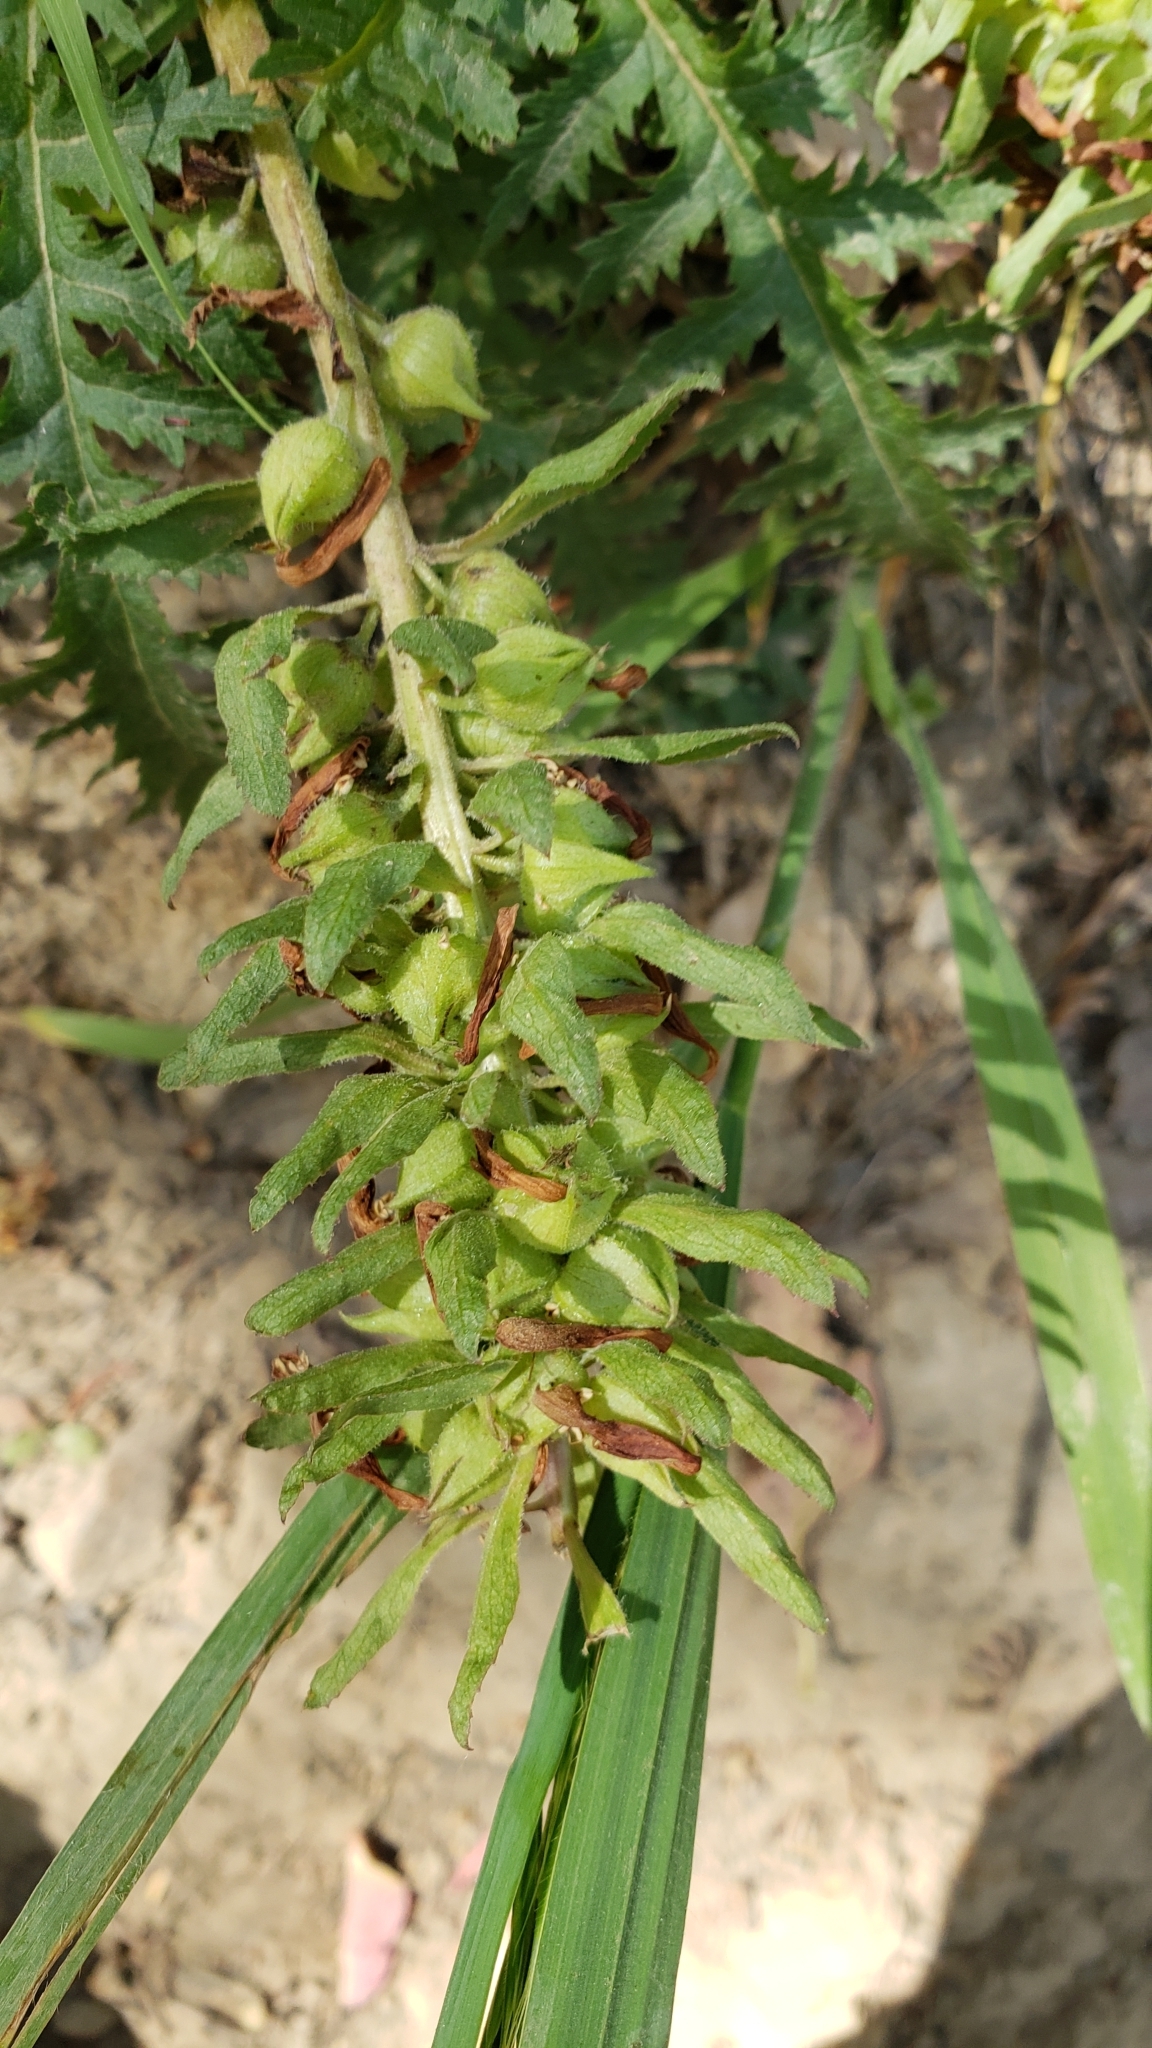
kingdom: Plantae
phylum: Tracheophyta
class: Magnoliopsida
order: Lamiales
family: Orobanchaceae
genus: Pedicularis
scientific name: Pedicularis densiflora
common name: Indian warrior
